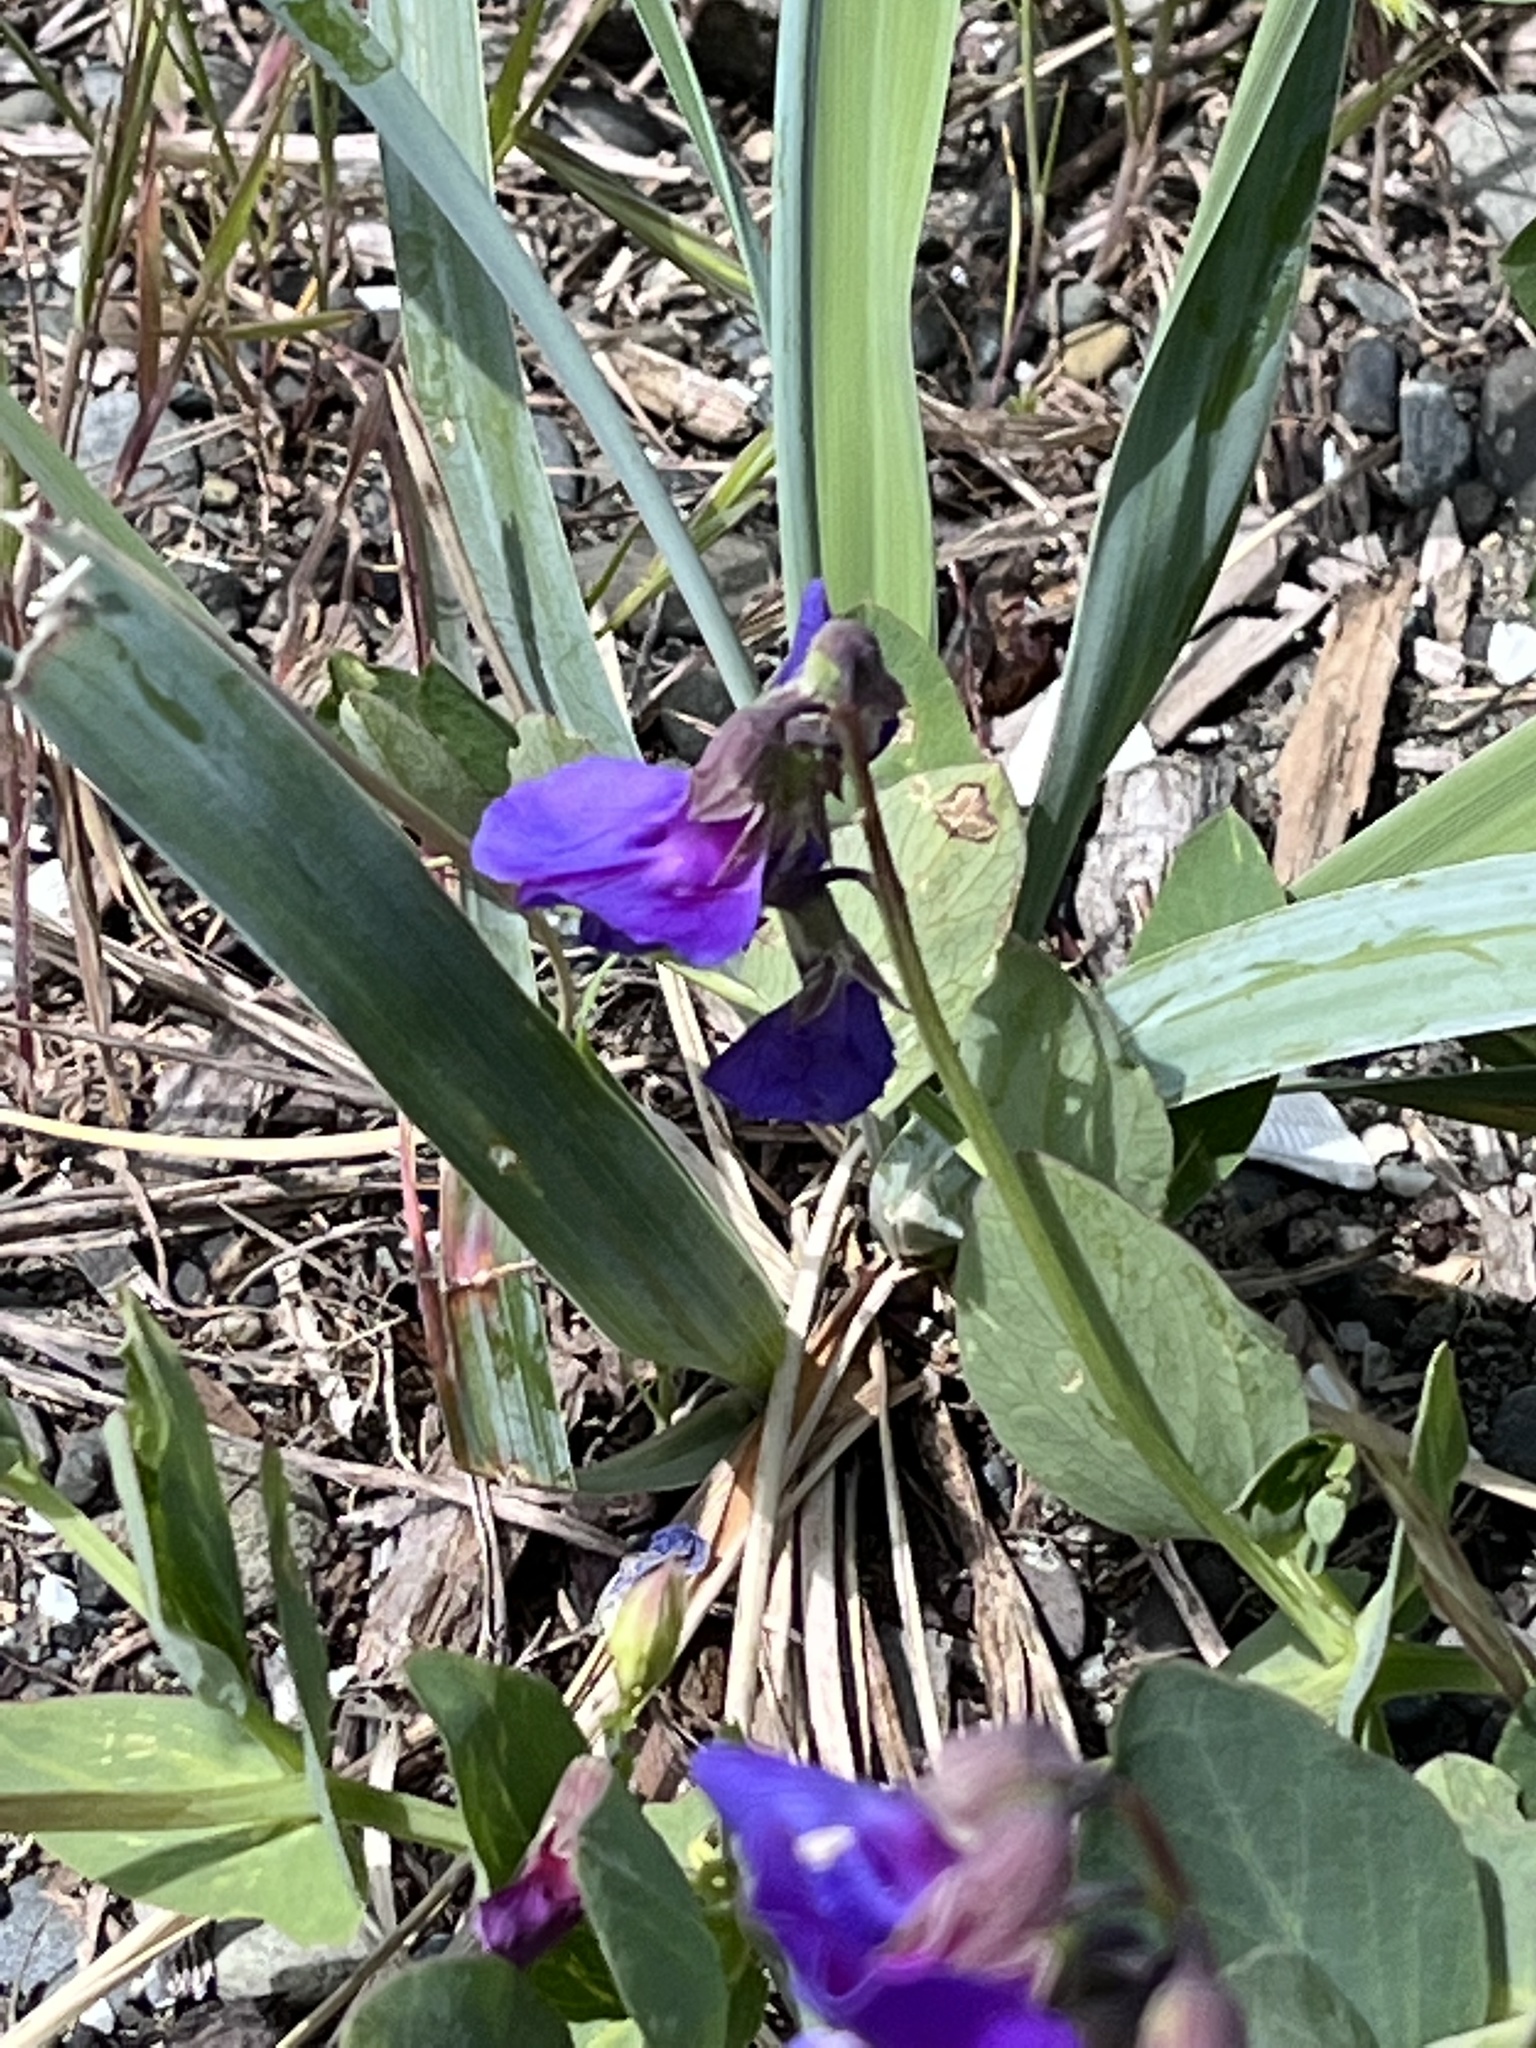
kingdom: Plantae
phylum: Tracheophyta
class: Magnoliopsida
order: Fabales
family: Fabaceae
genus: Lathyrus
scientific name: Lathyrus japonicus
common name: Sea pea
